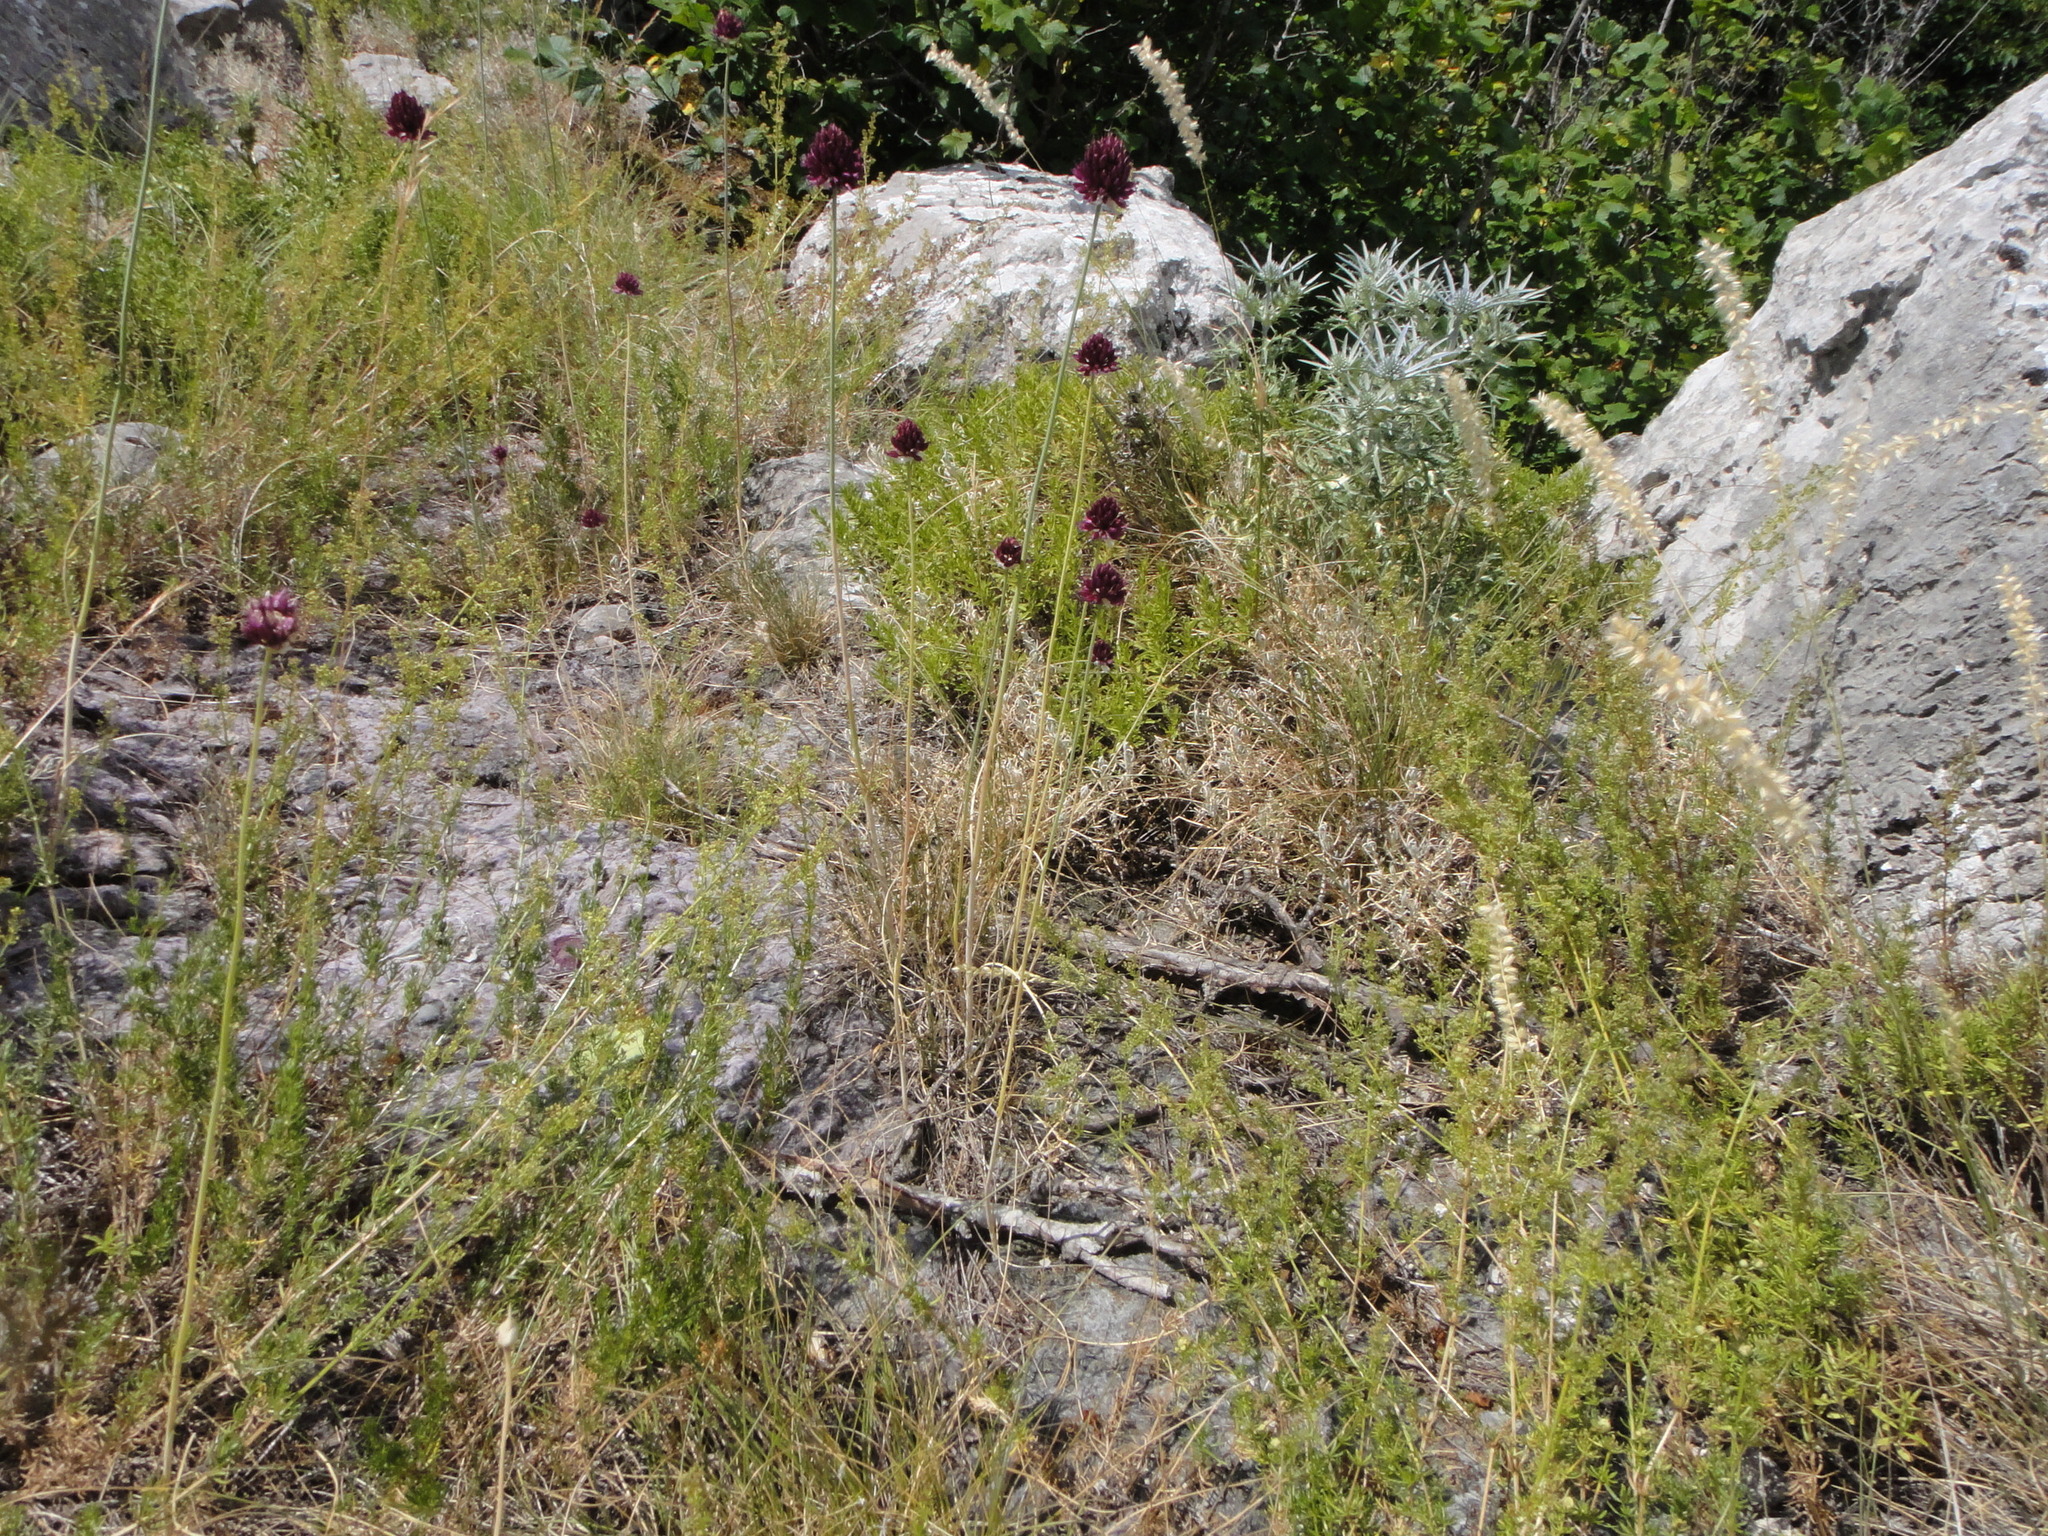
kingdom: Plantae
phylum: Tracheophyta
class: Liliopsida
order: Asparagales
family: Amaryllidaceae
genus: Allium
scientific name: Allium sphaerocephalon
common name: Round-headed leek
